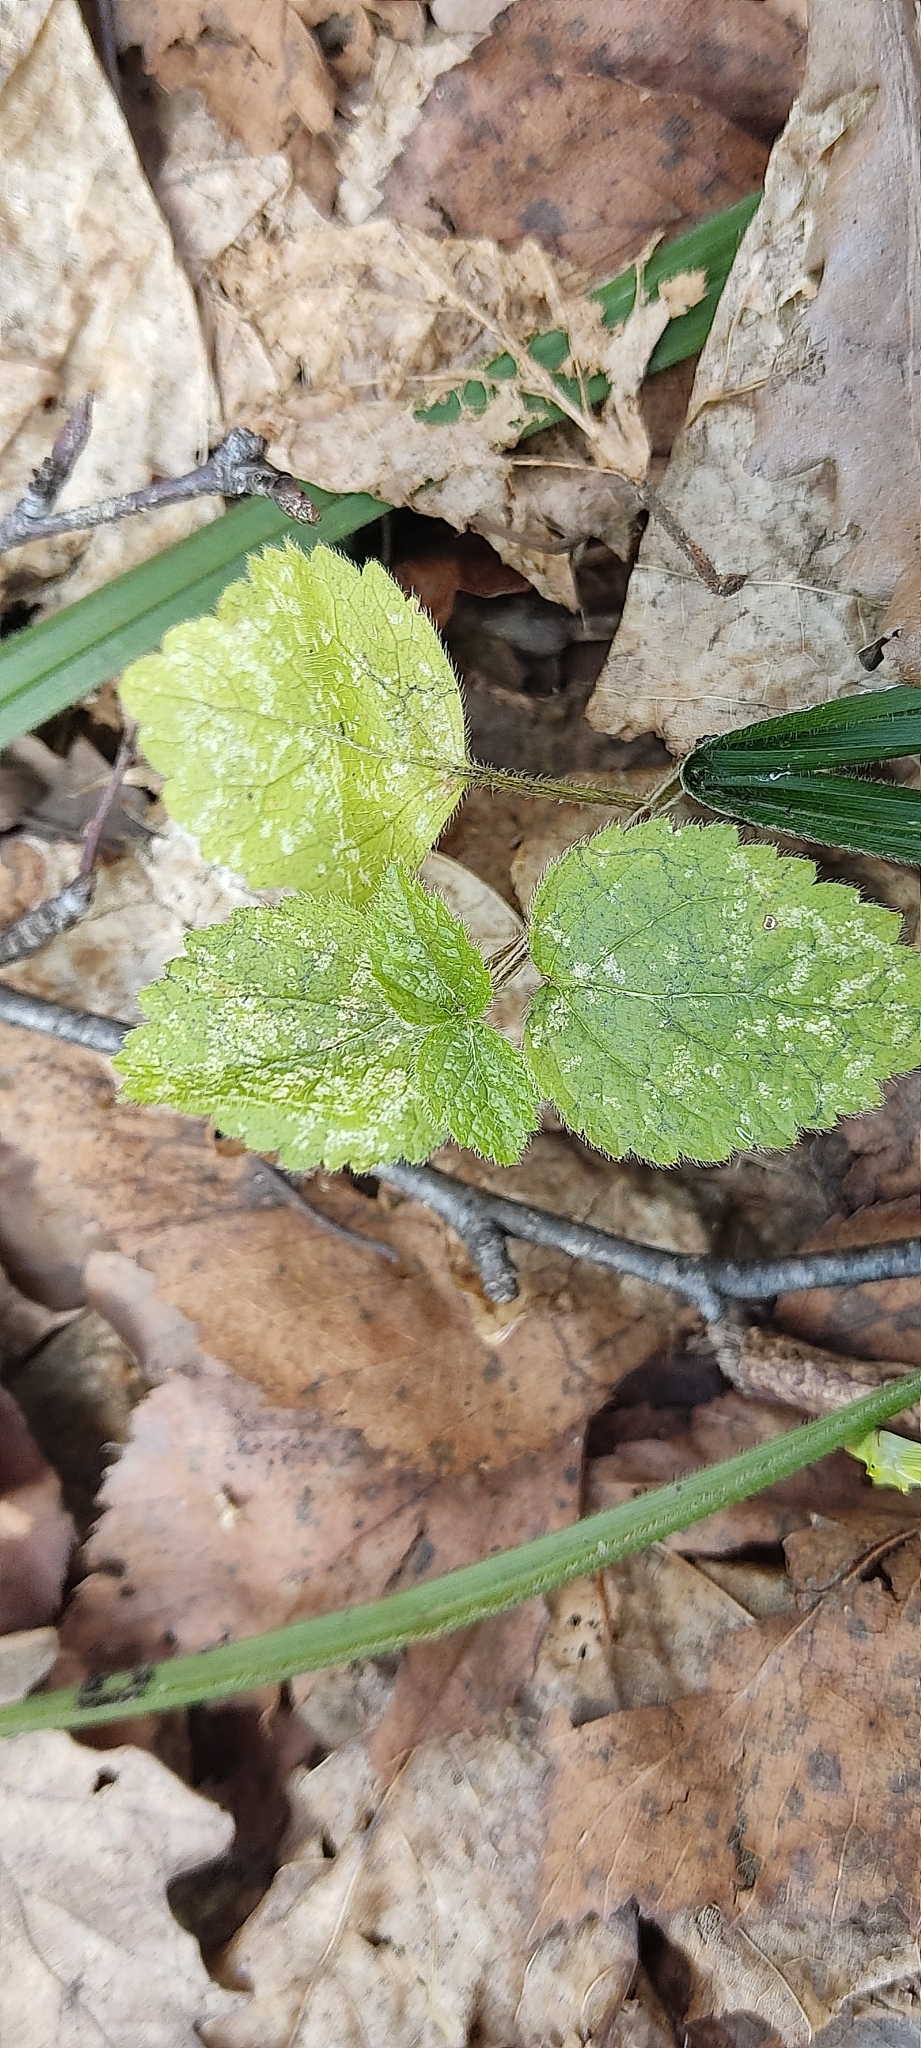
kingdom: Plantae
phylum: Tracheophyta
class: Magnoliopsida
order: Lamiales
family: Lamiaceae
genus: Lamium
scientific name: Lamium galeobdolon
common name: Yellow archangel
